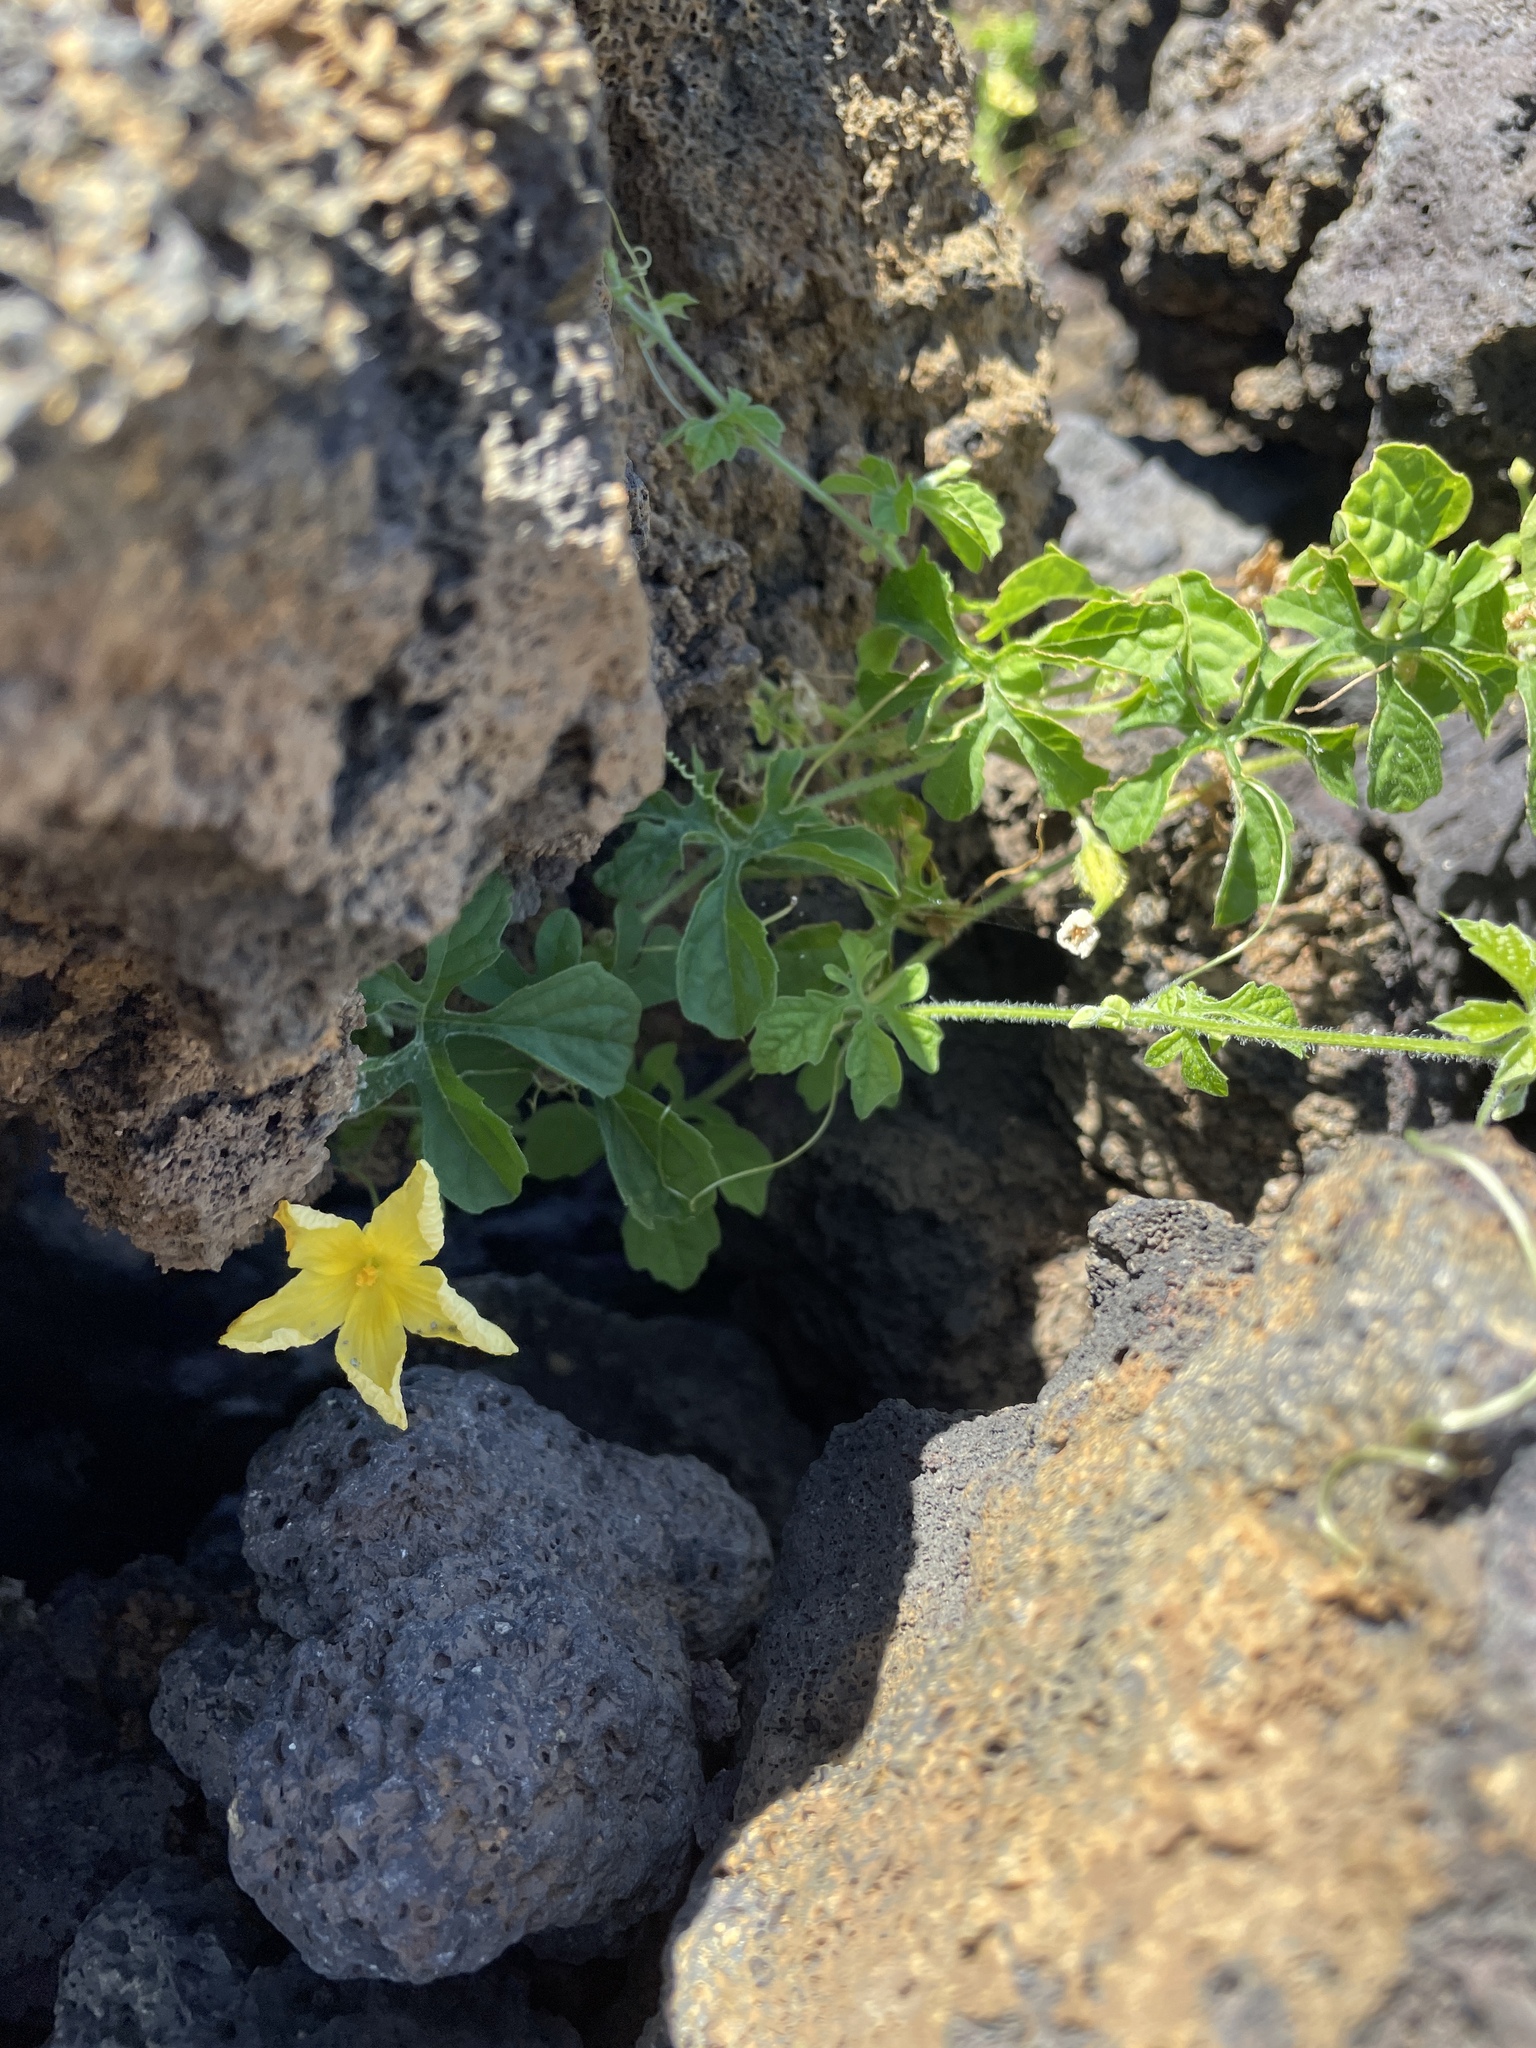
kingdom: Plantae
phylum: Tracheophyta
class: Magnoliopsida
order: Cucurbitales
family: Cucurbitaceae
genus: Momordica
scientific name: Momordica charantia
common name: Balsampear
